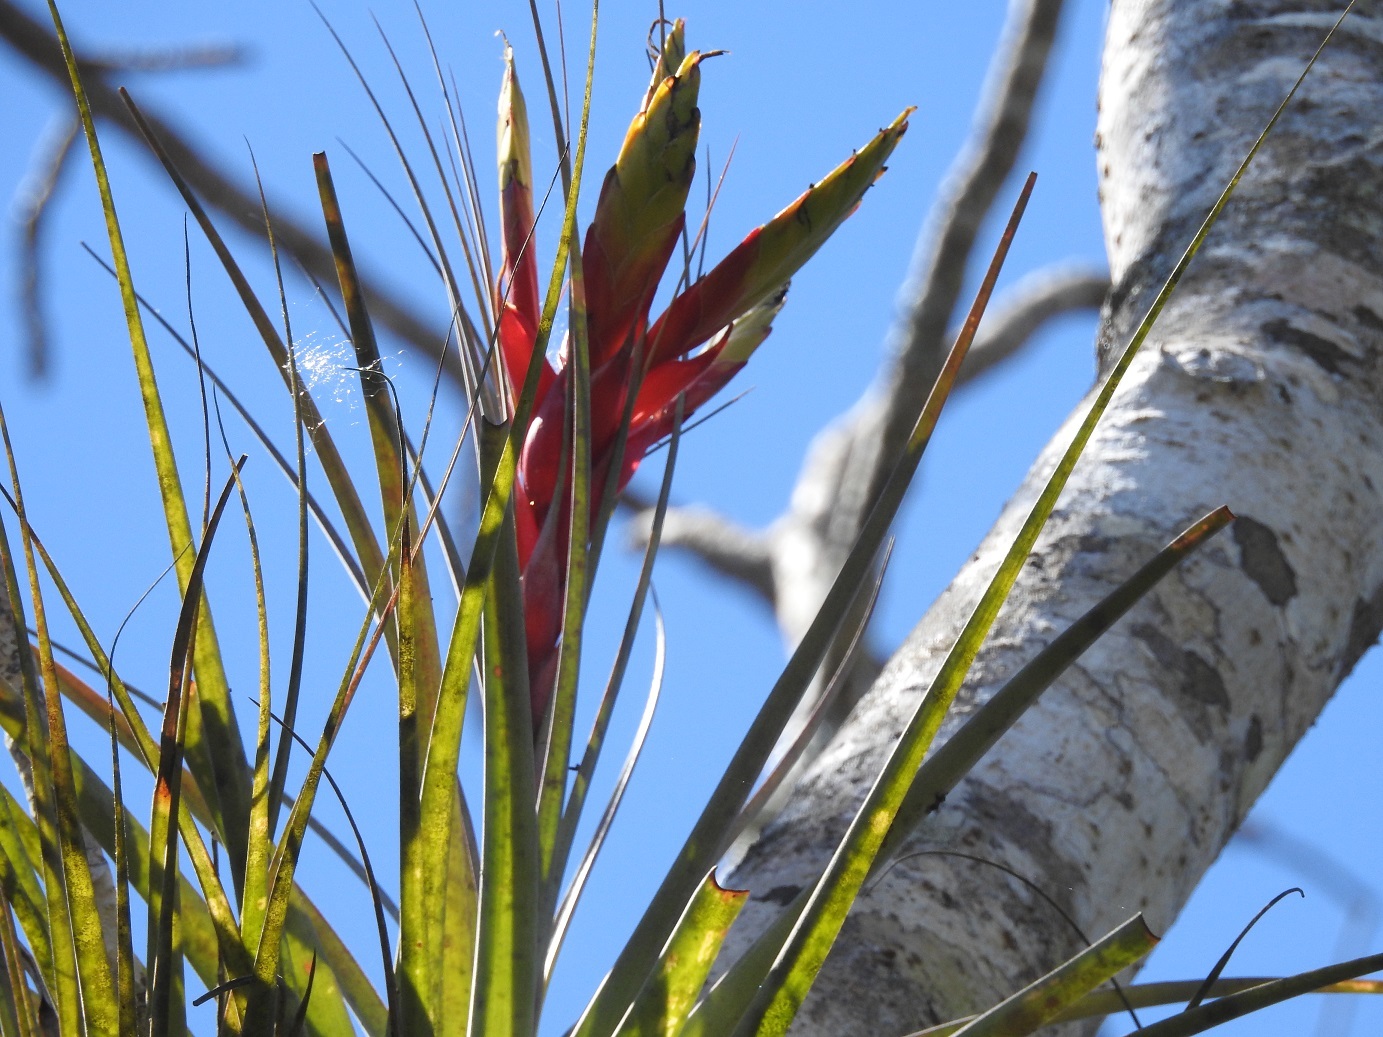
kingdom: Plantae
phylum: Tracheophyta
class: Liliopsida
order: Poales
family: Bromeliaceae
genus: Tillandsia
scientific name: Tillandsia zoquensis
